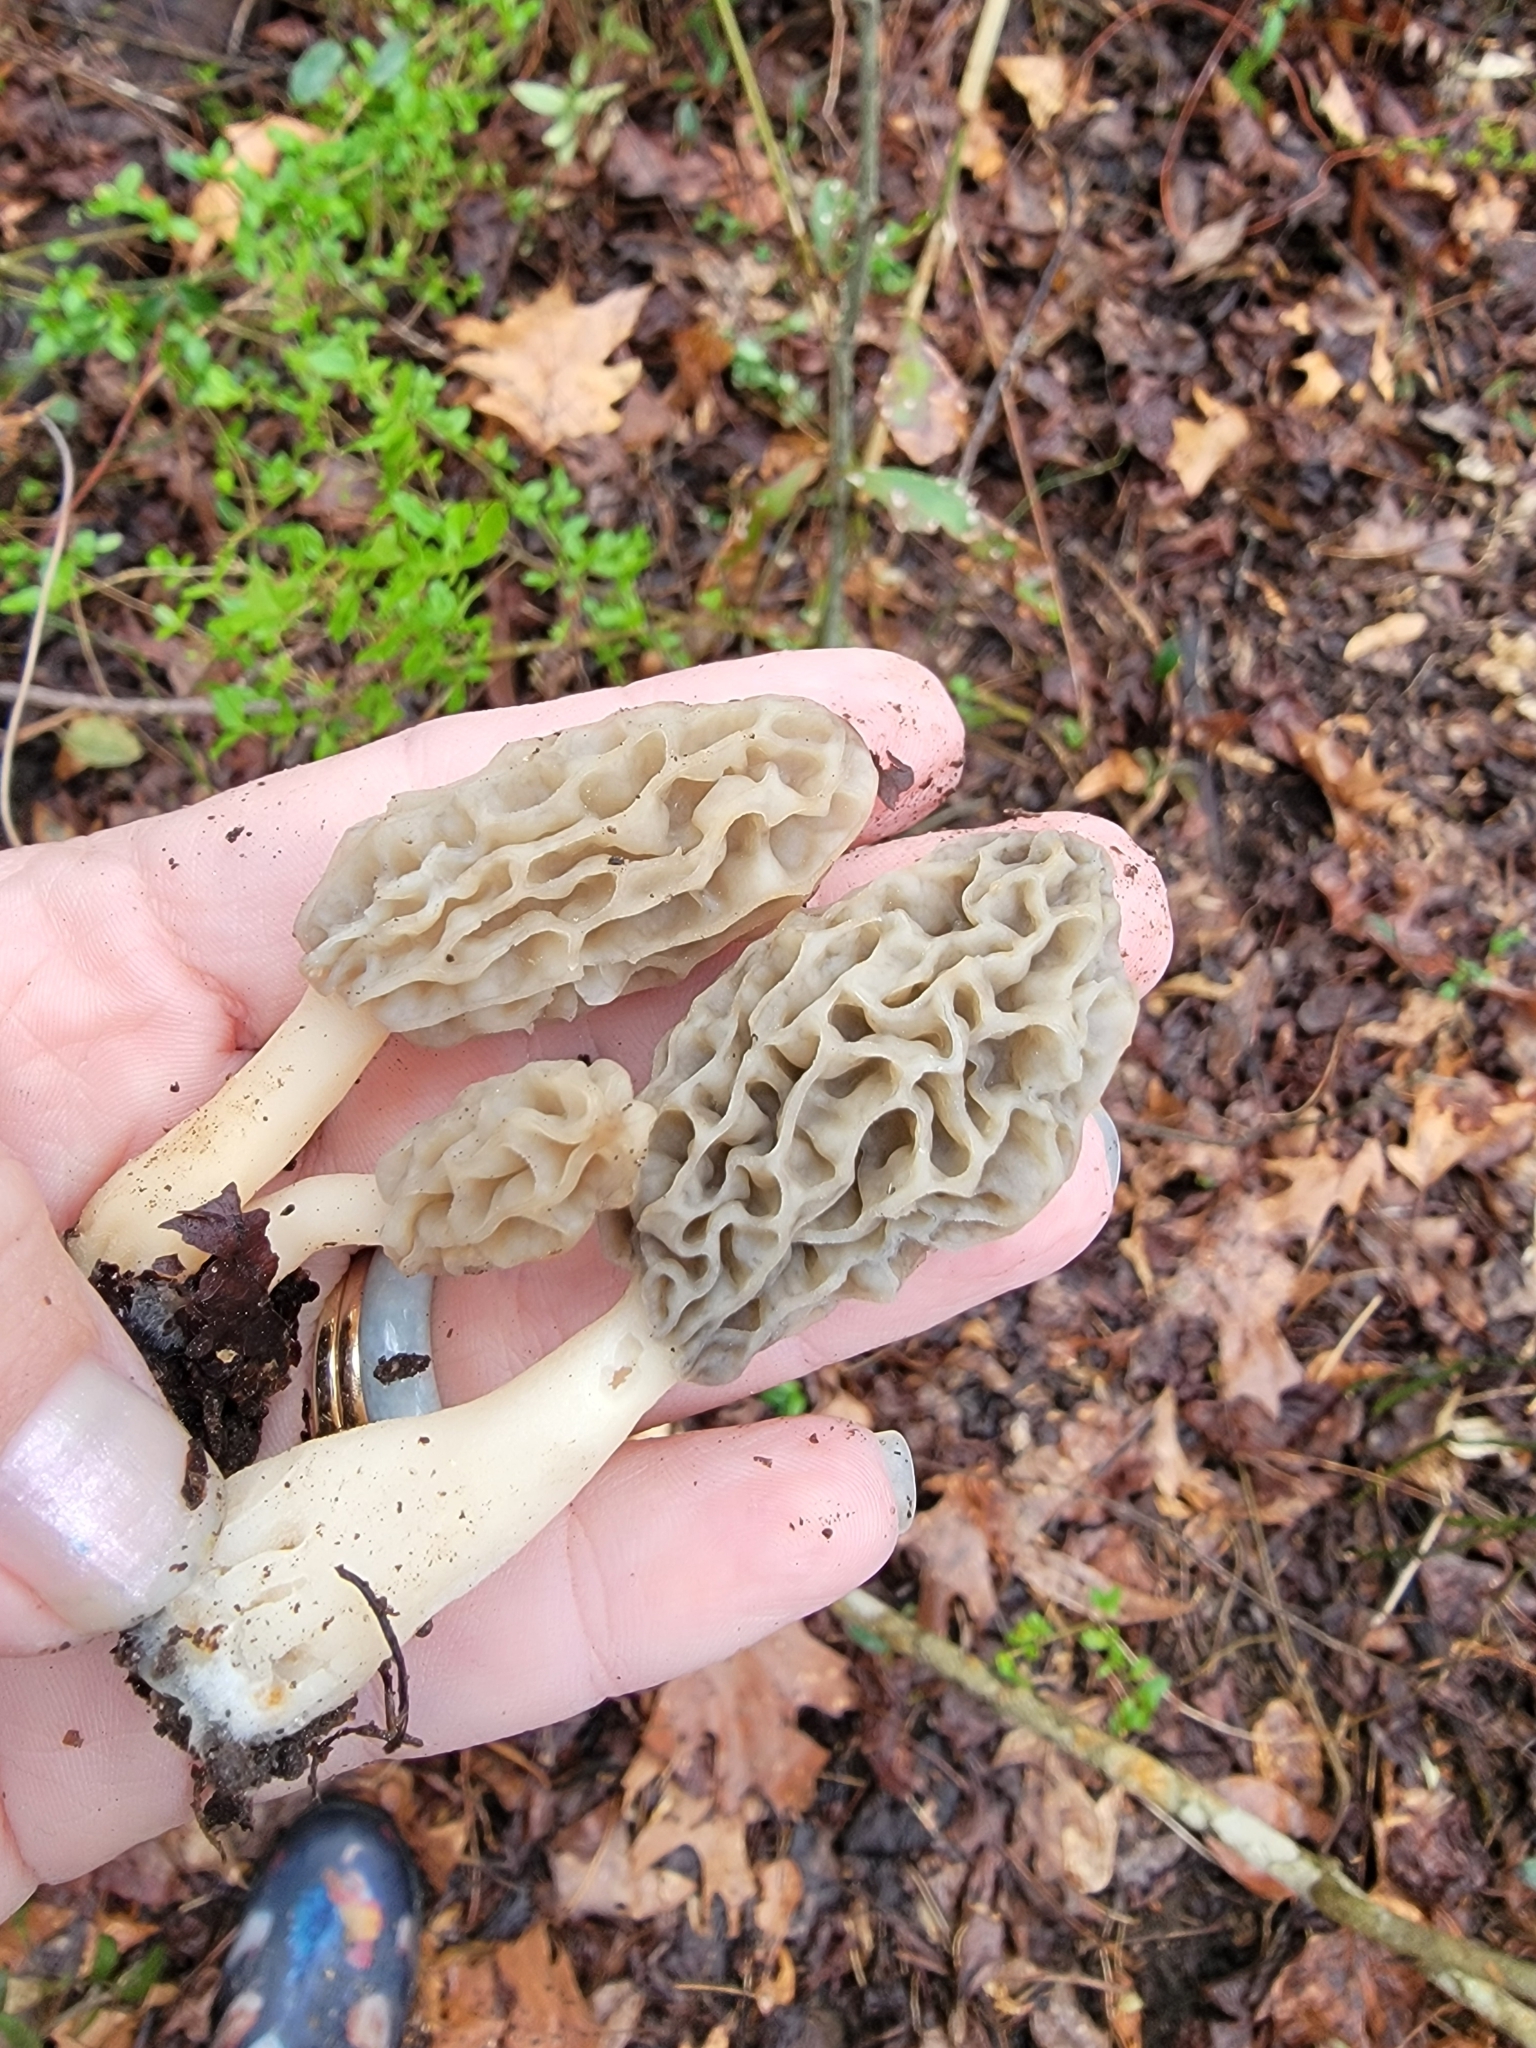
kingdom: Fungi
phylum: Ascomycota
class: Pezizomycetes
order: Pezizales
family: Morchellaceae
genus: Morchella
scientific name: Morchella diminutiva
